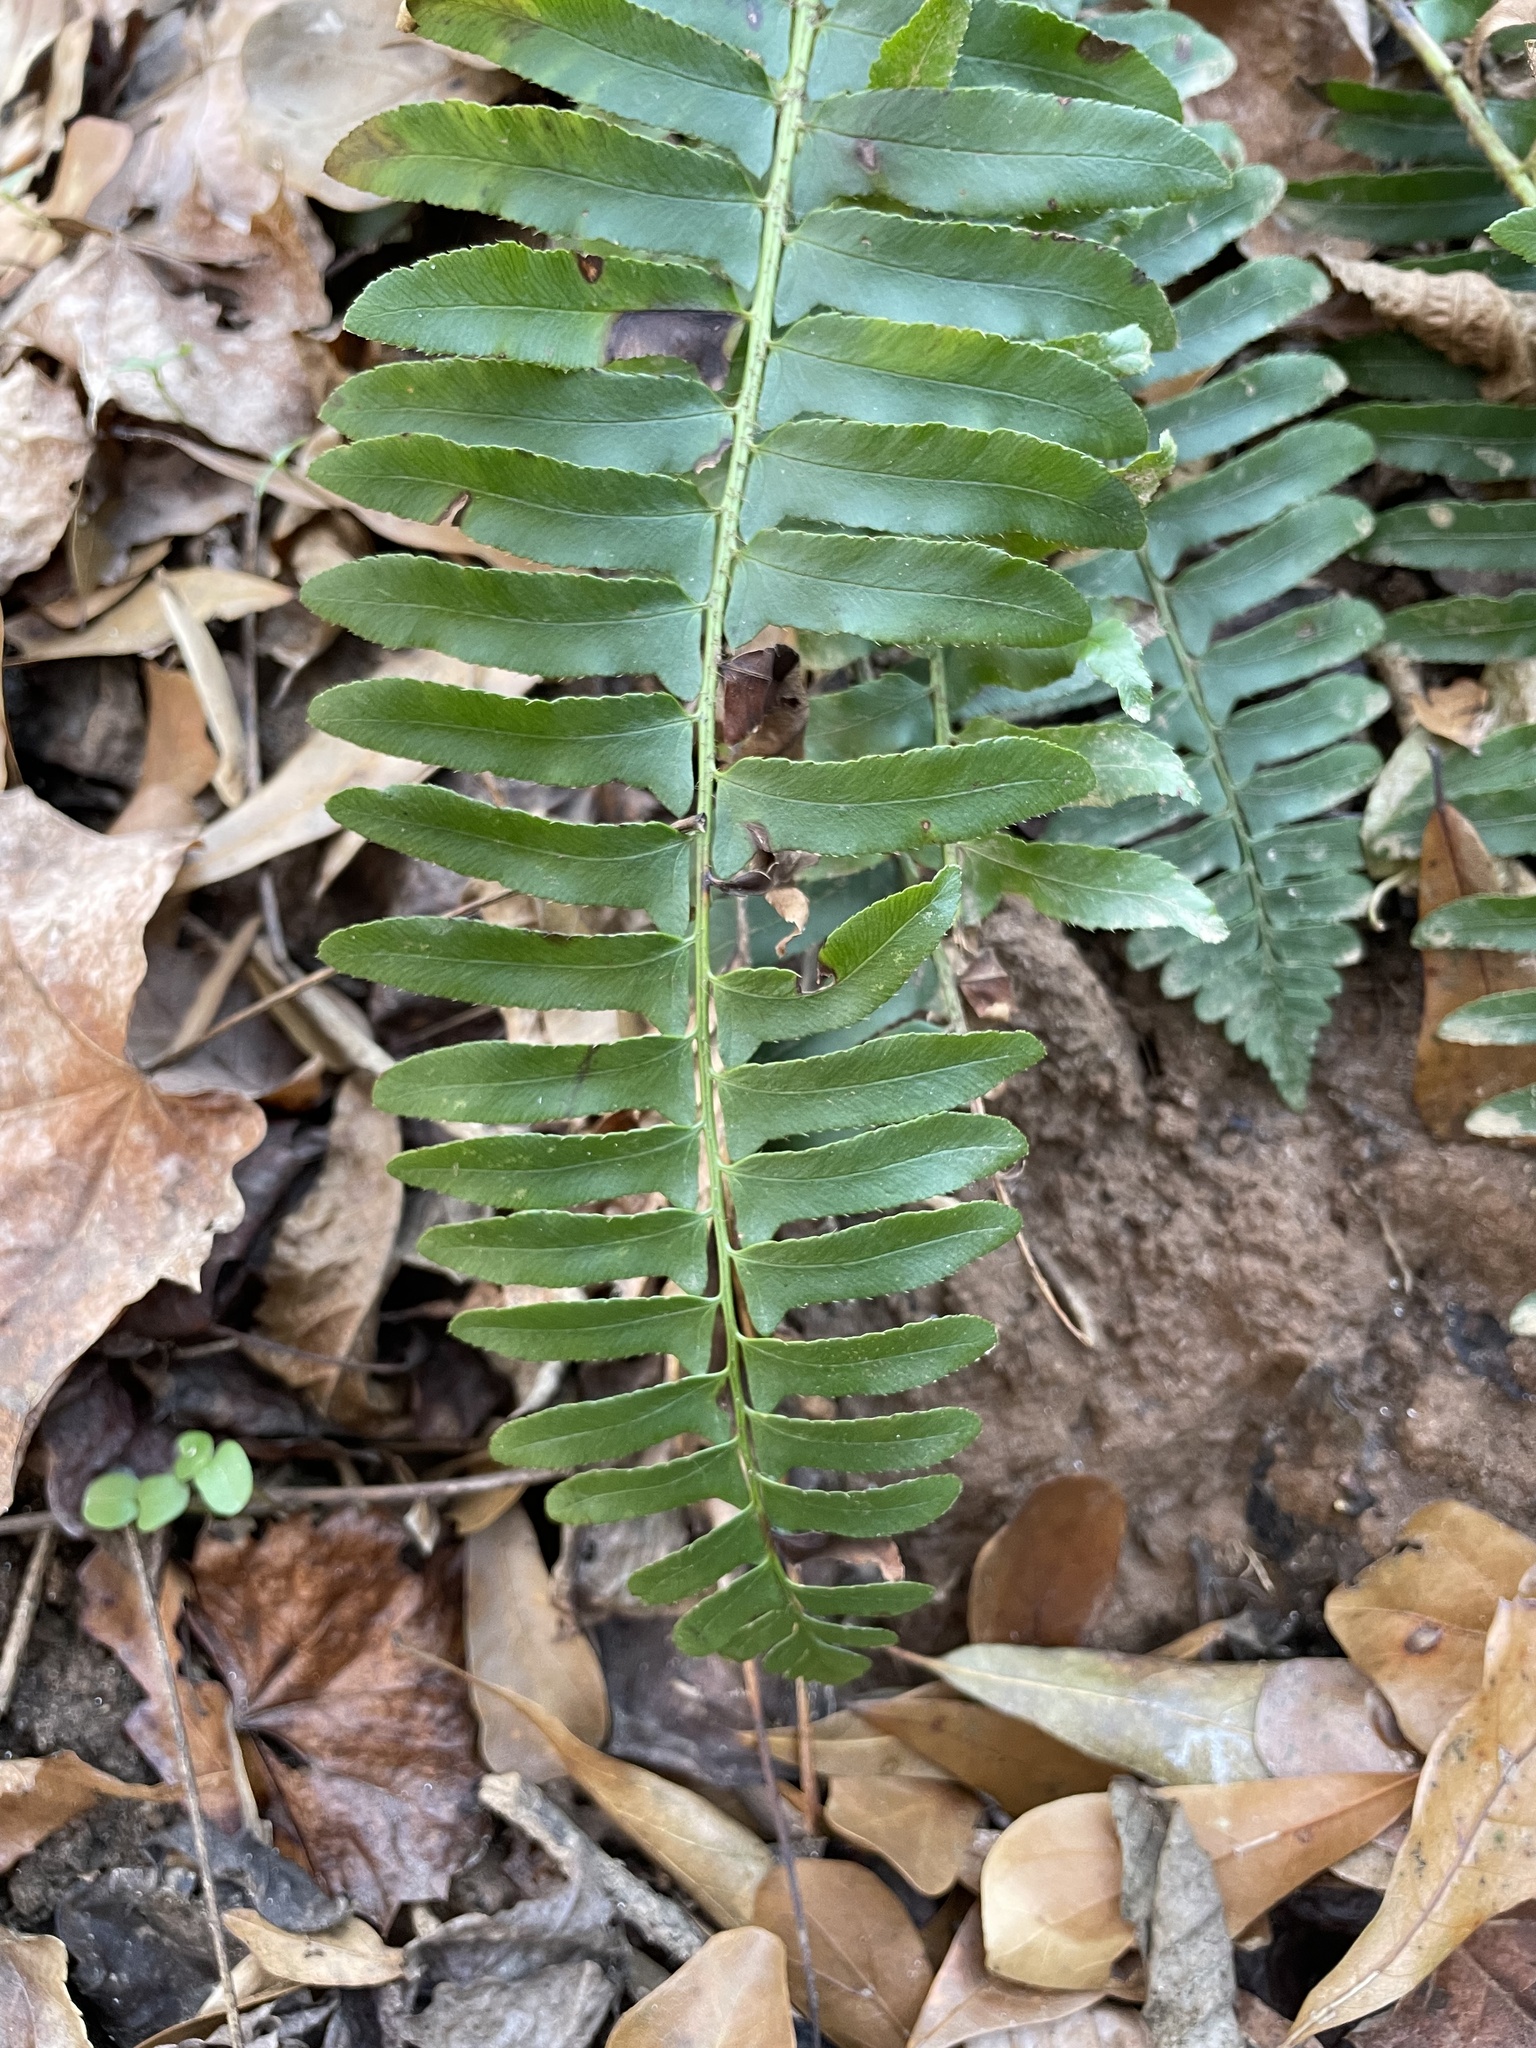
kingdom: Plantae
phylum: Tracheophyta
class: Polypodiopsida
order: Polypodiales
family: Dryopteridaceae
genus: Polystichum
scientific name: Polystichum acrostichoides
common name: Christmas fern
